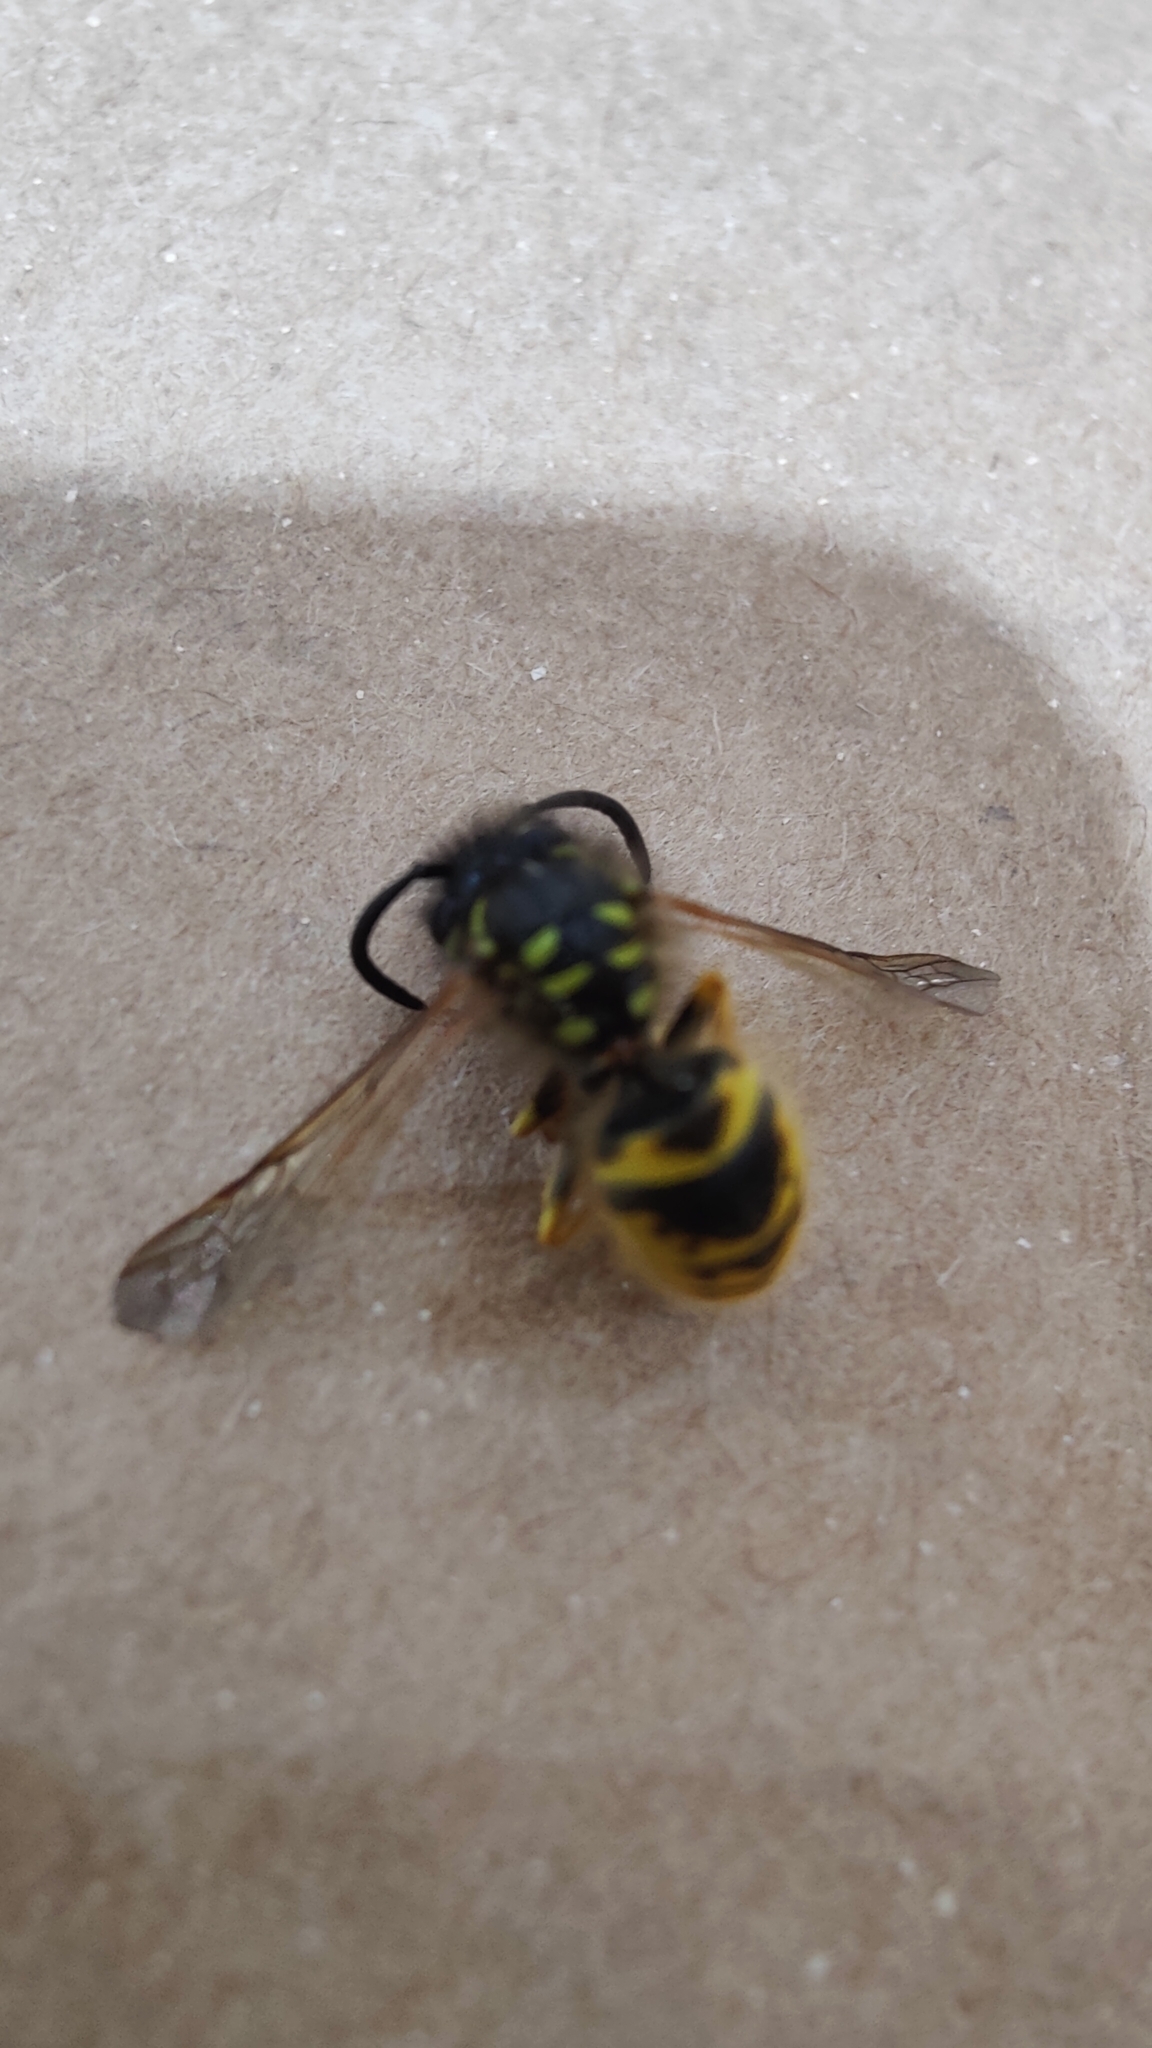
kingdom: Animalia
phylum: Arthropoda
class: Insecta
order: Hymenoptera
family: Vespidae
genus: Vespula
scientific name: Vespula vulgaris
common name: Common wasp
